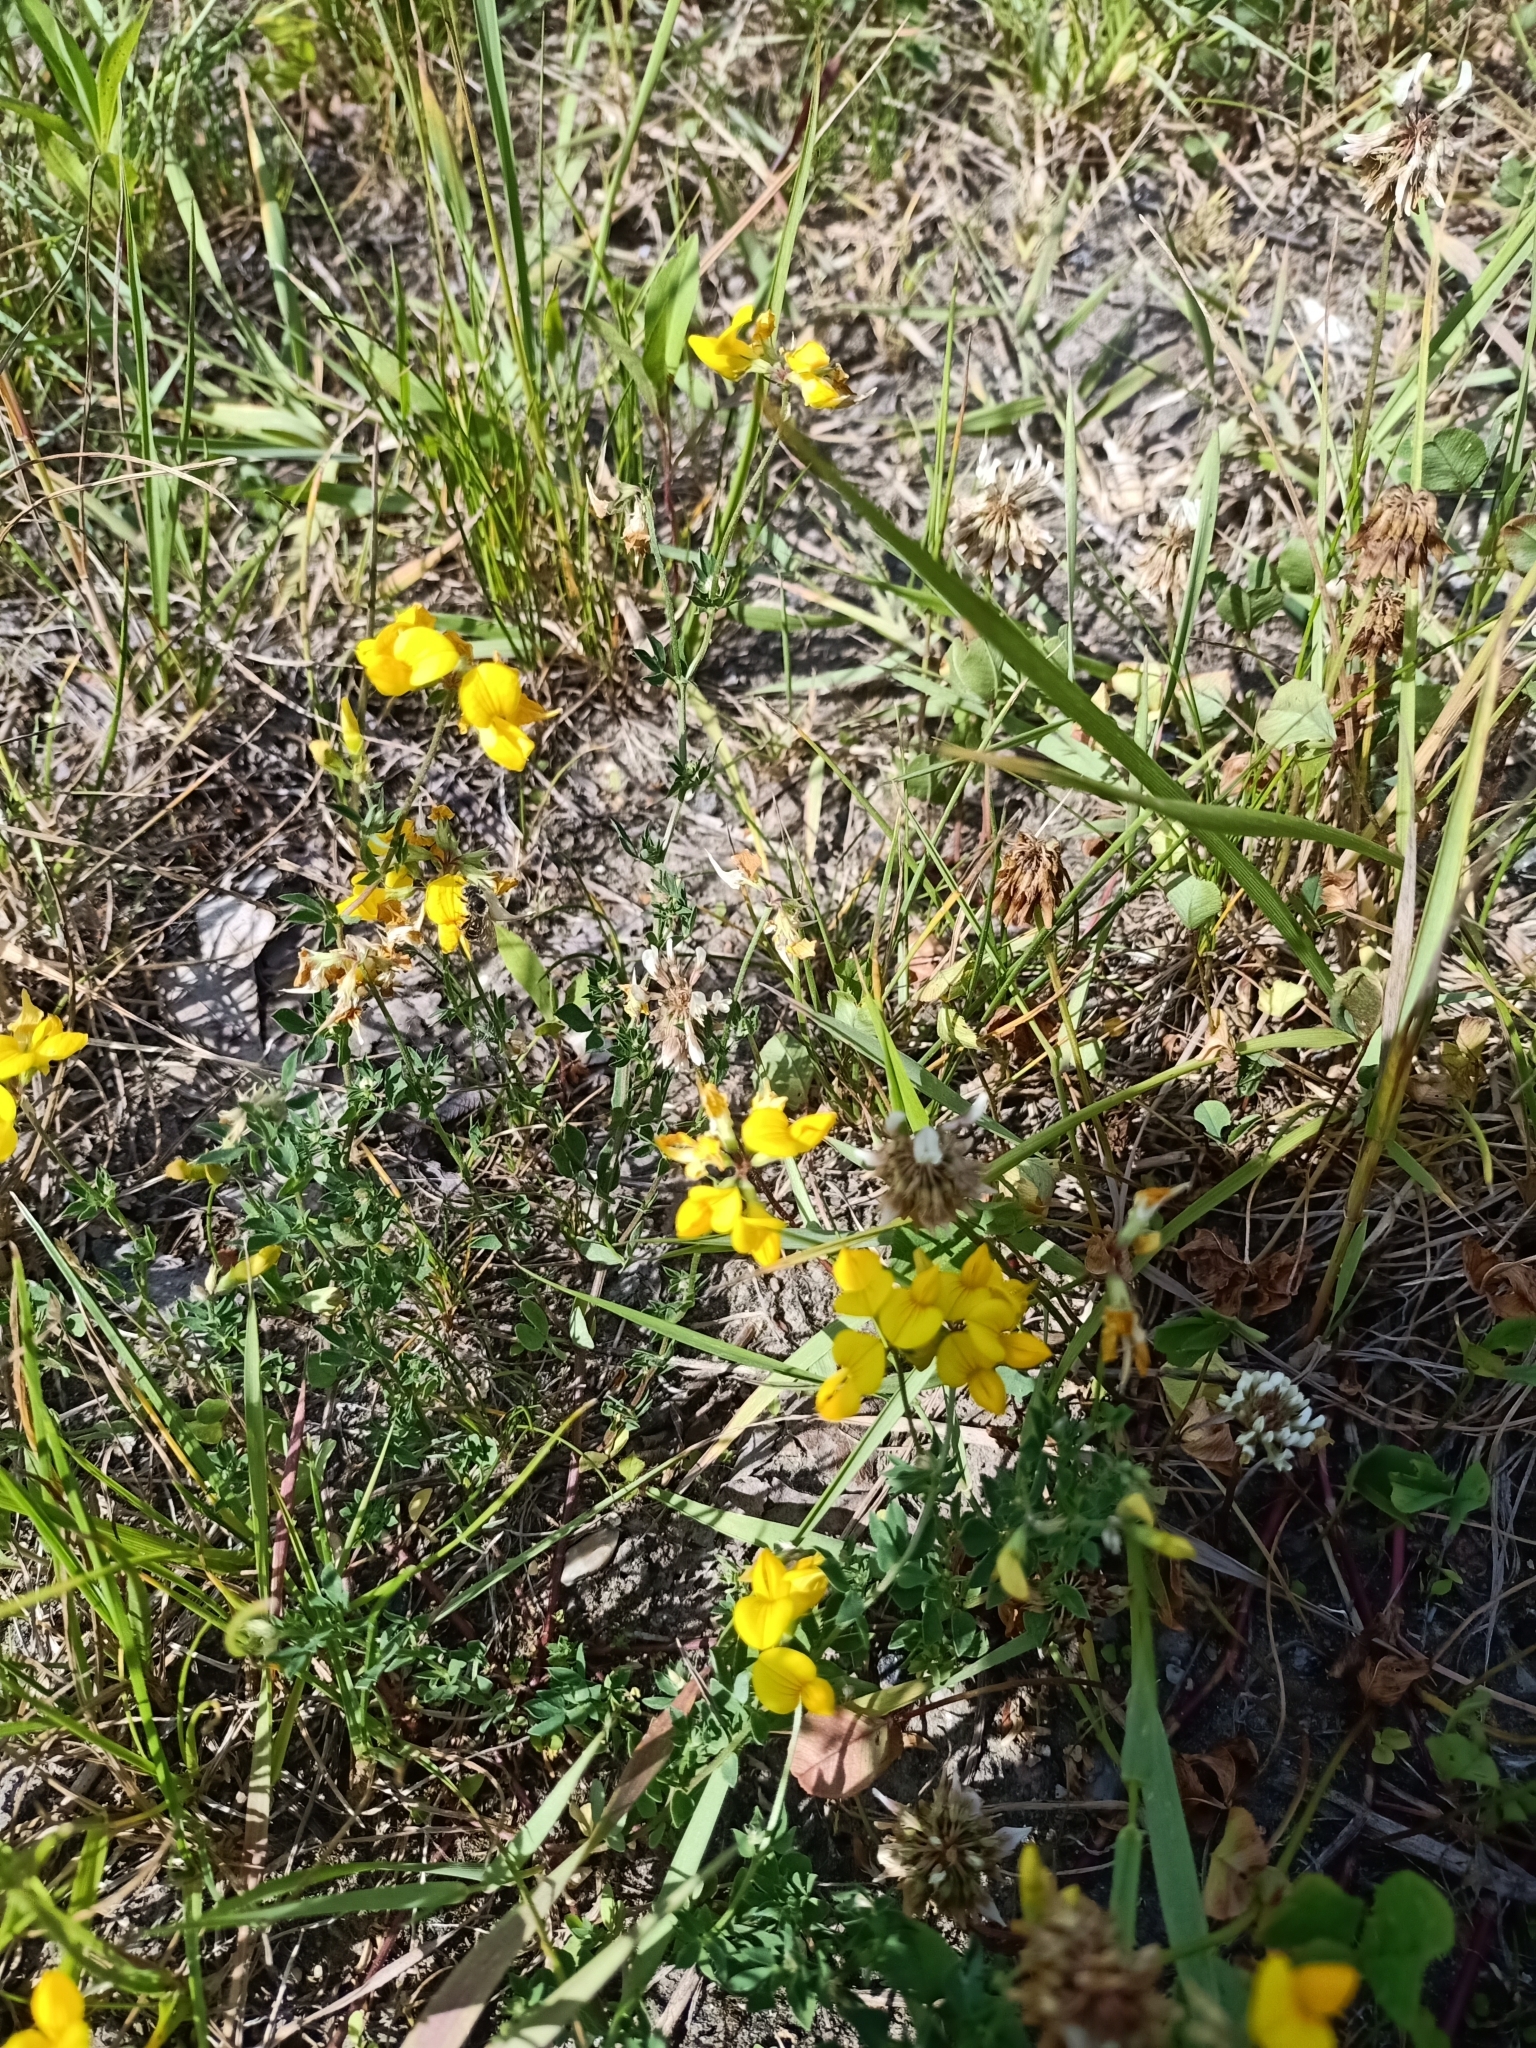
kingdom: Plantae
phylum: Tracheophyta
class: Magnoliopsida
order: Fabales
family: Fabaceae
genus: Lotus
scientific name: Lotus corniculatus
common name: Common bird's-foot-trefoil
